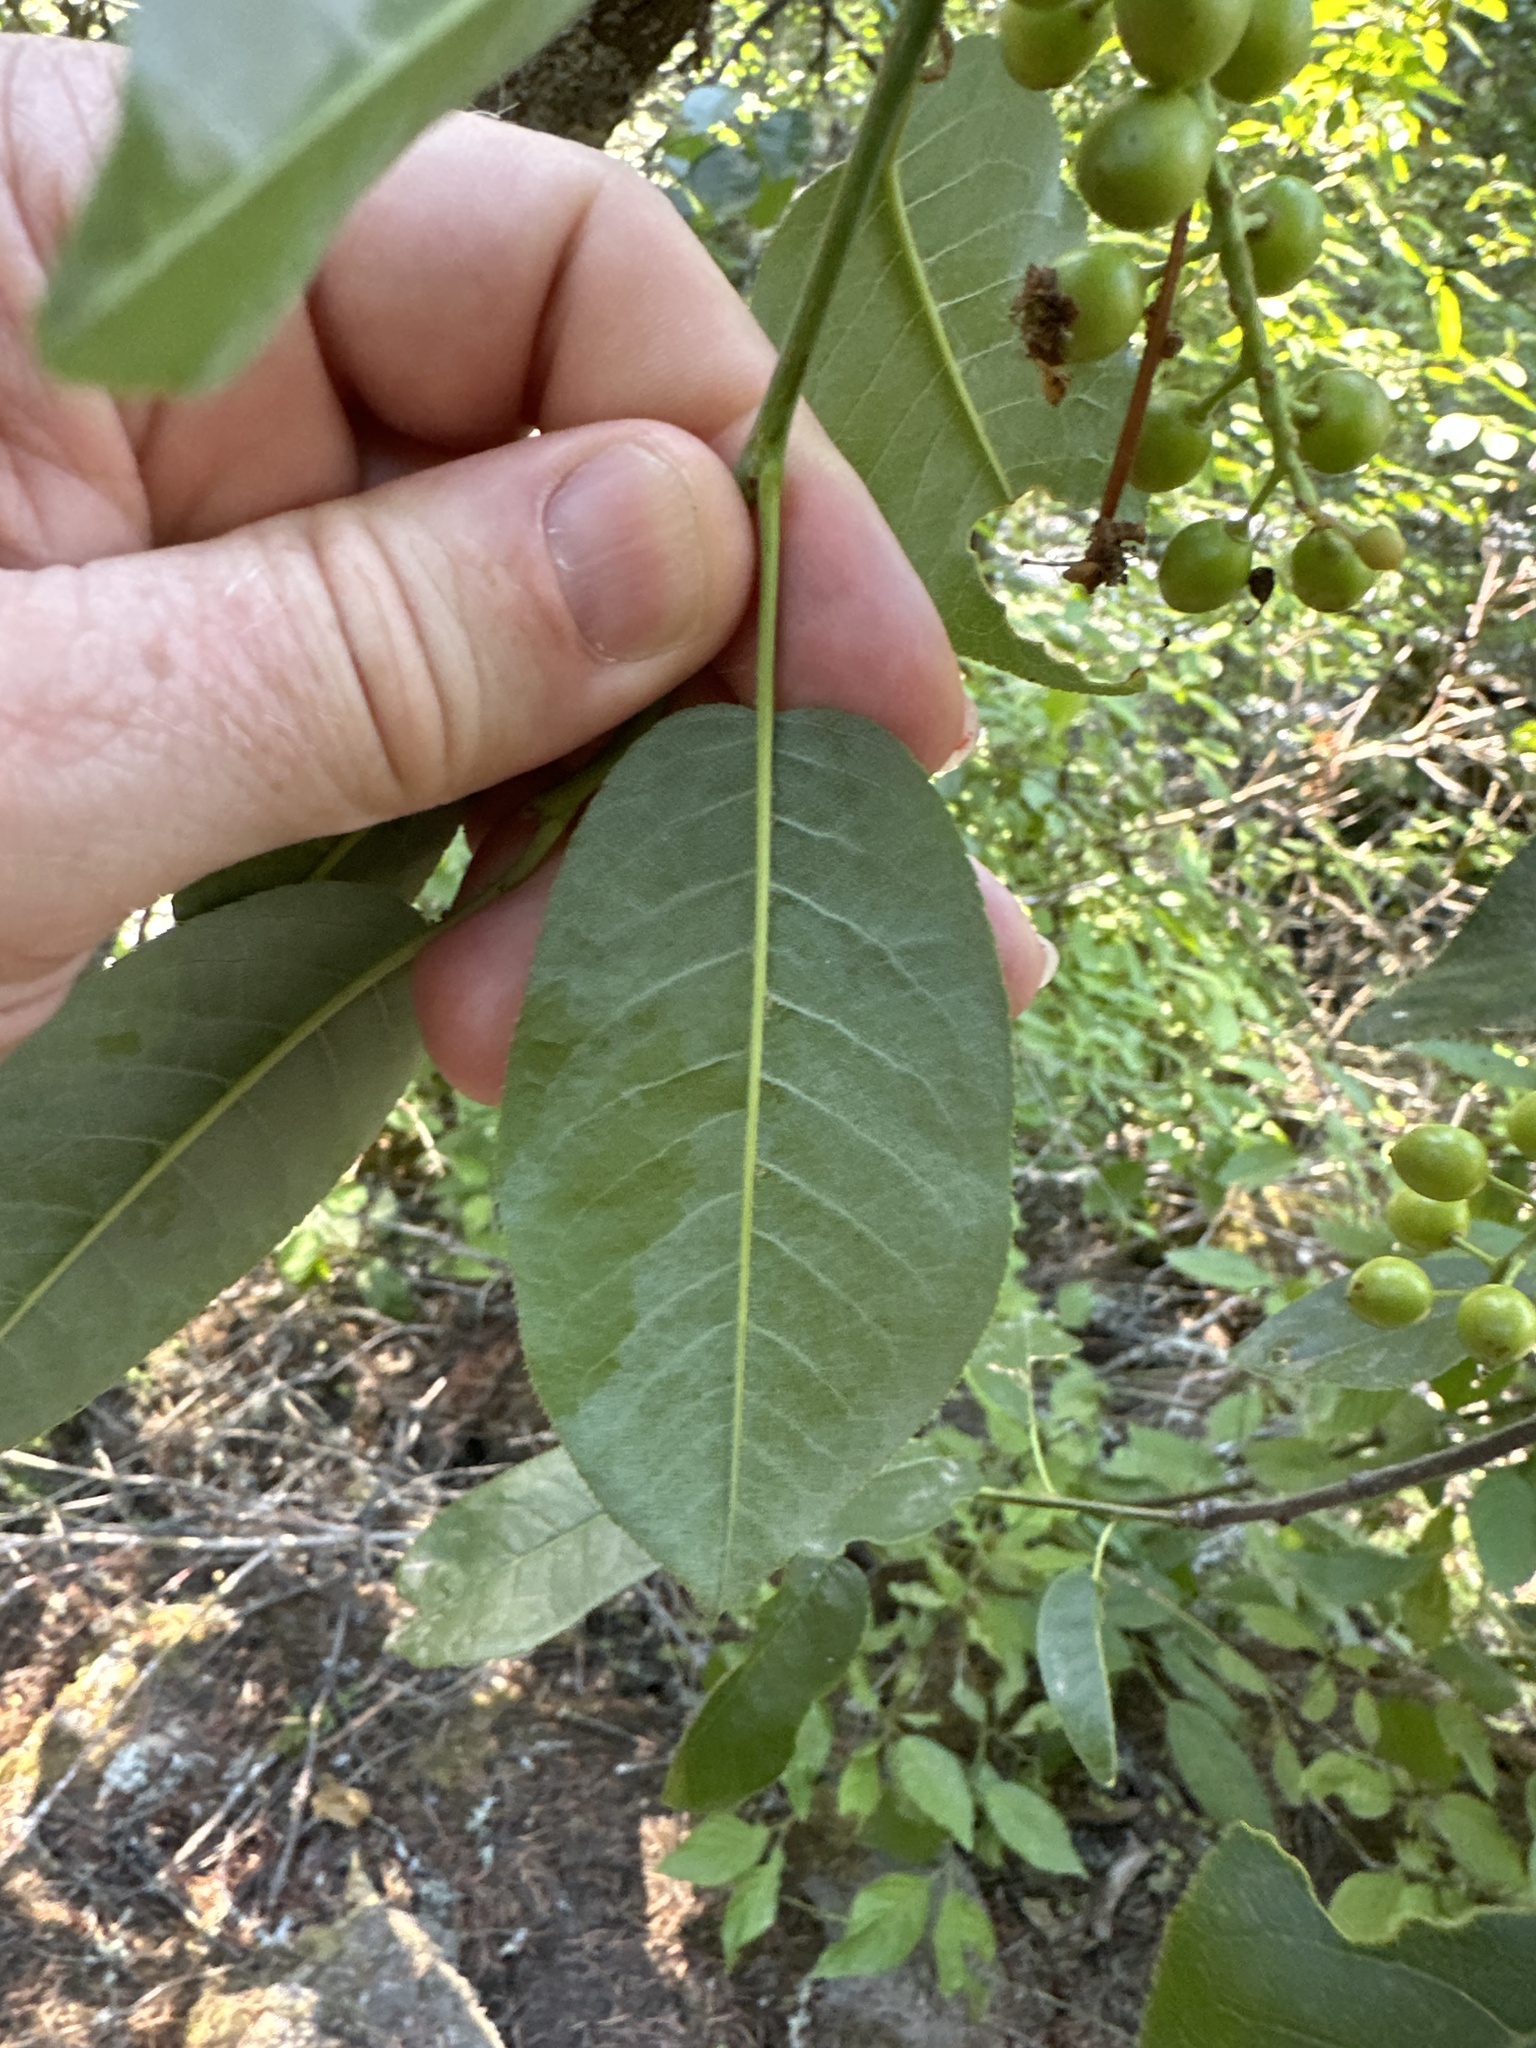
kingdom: Plantae
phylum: Tracheophyta
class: Magnoliopsida
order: Rosales
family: Rosaceae
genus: Prunus
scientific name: Prunus virginiana
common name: Chokecherry
